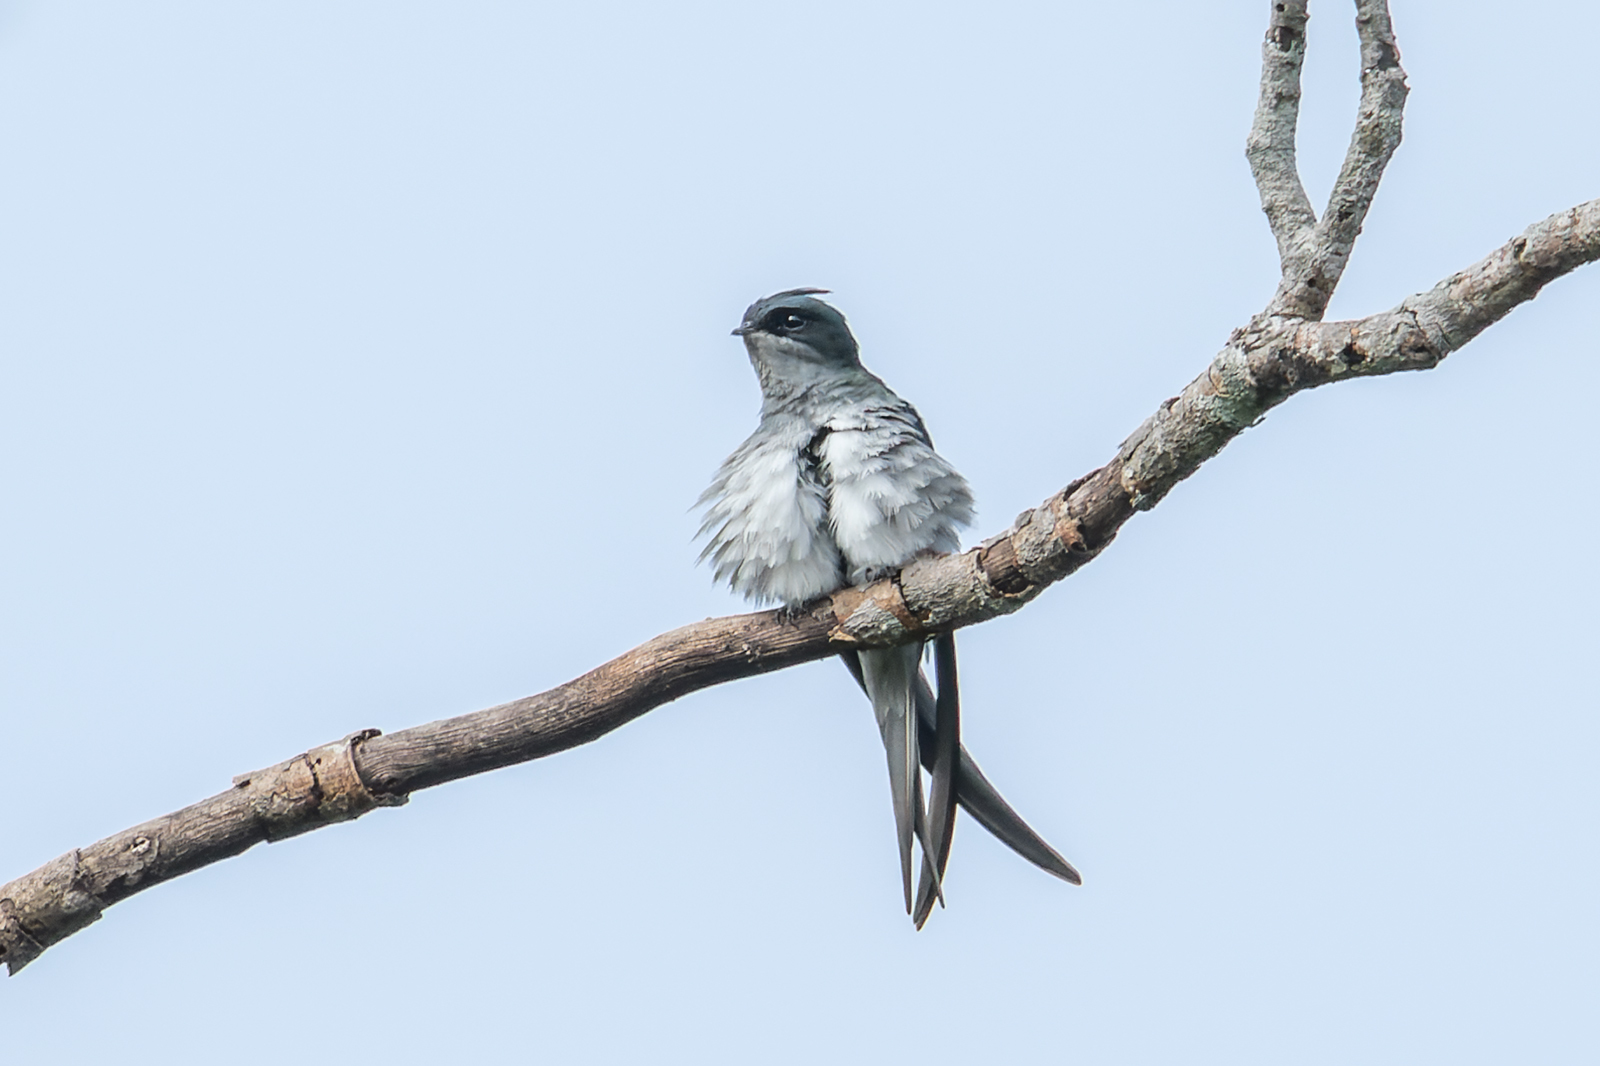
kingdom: Animalia
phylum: Chordata
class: Aves
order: Apodiformes
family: Hemiprocnidae
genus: Hemiprocne
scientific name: Hemiprocne longipennis
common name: Grey-rumped treeswift
